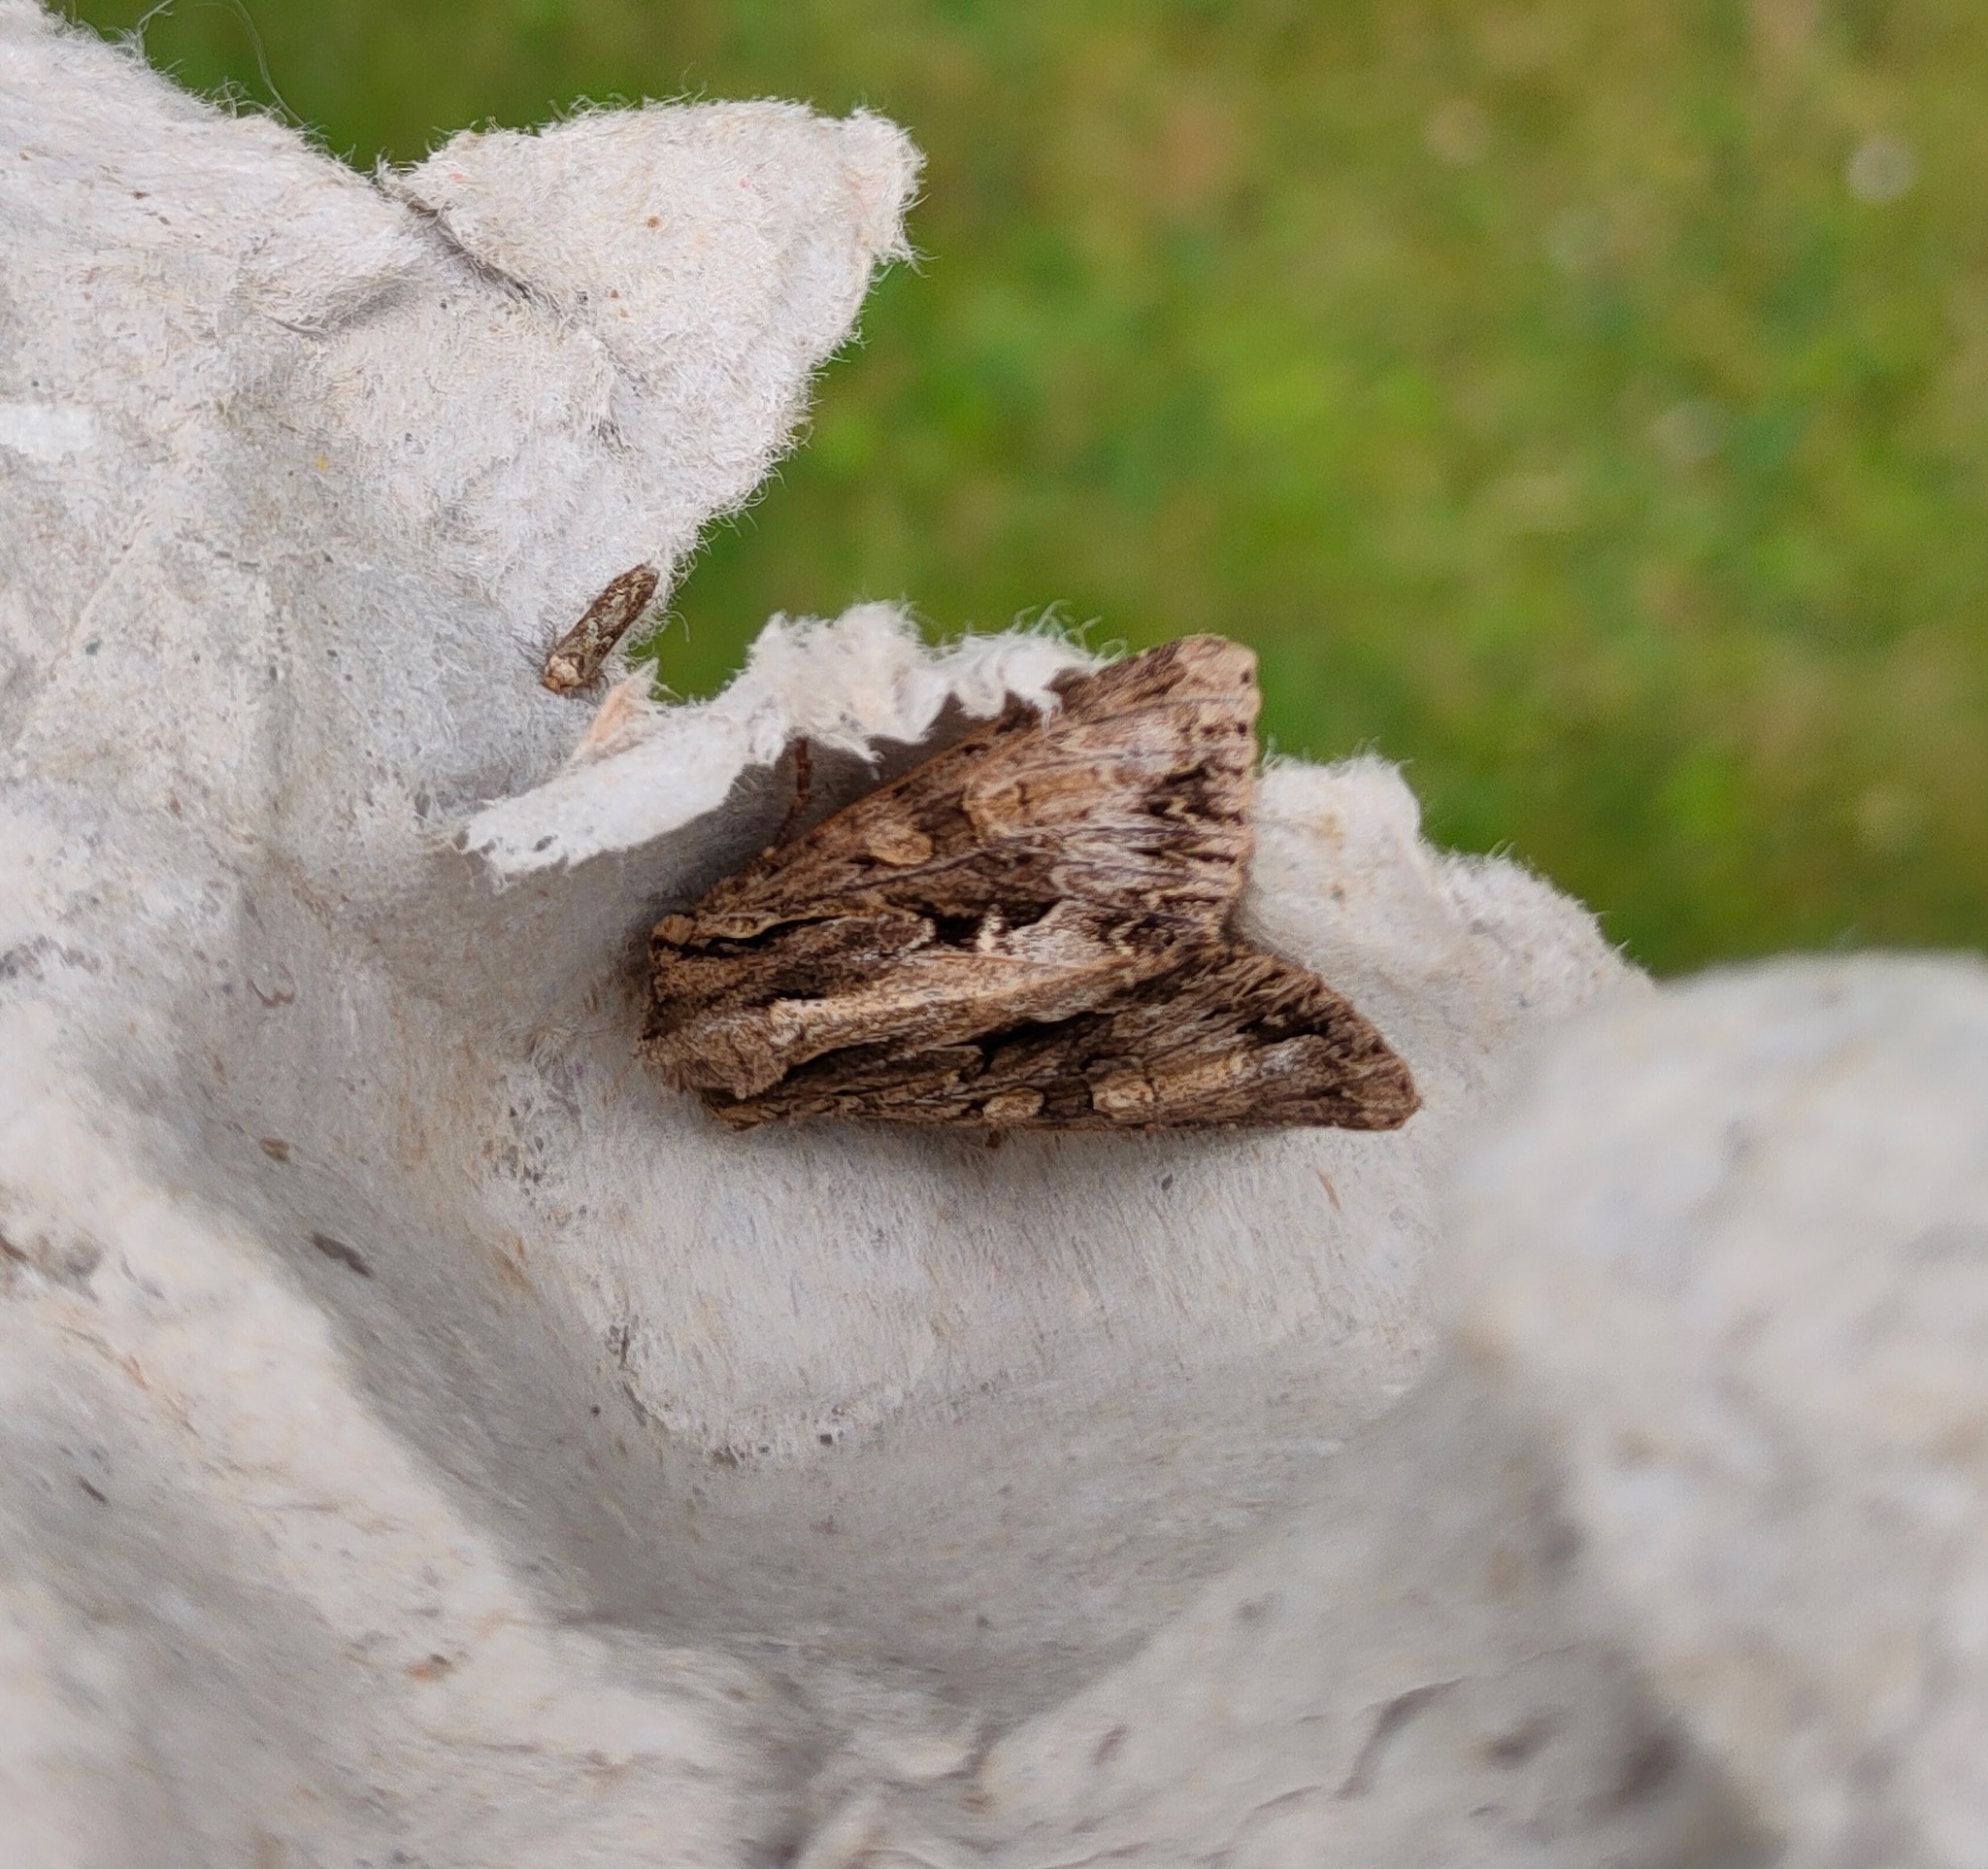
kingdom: Animalia
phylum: Arthropoda
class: Insecta
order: Lepidoptera
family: Noctuidae
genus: Apamea
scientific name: Apamea monoglypha
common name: Dark arches
